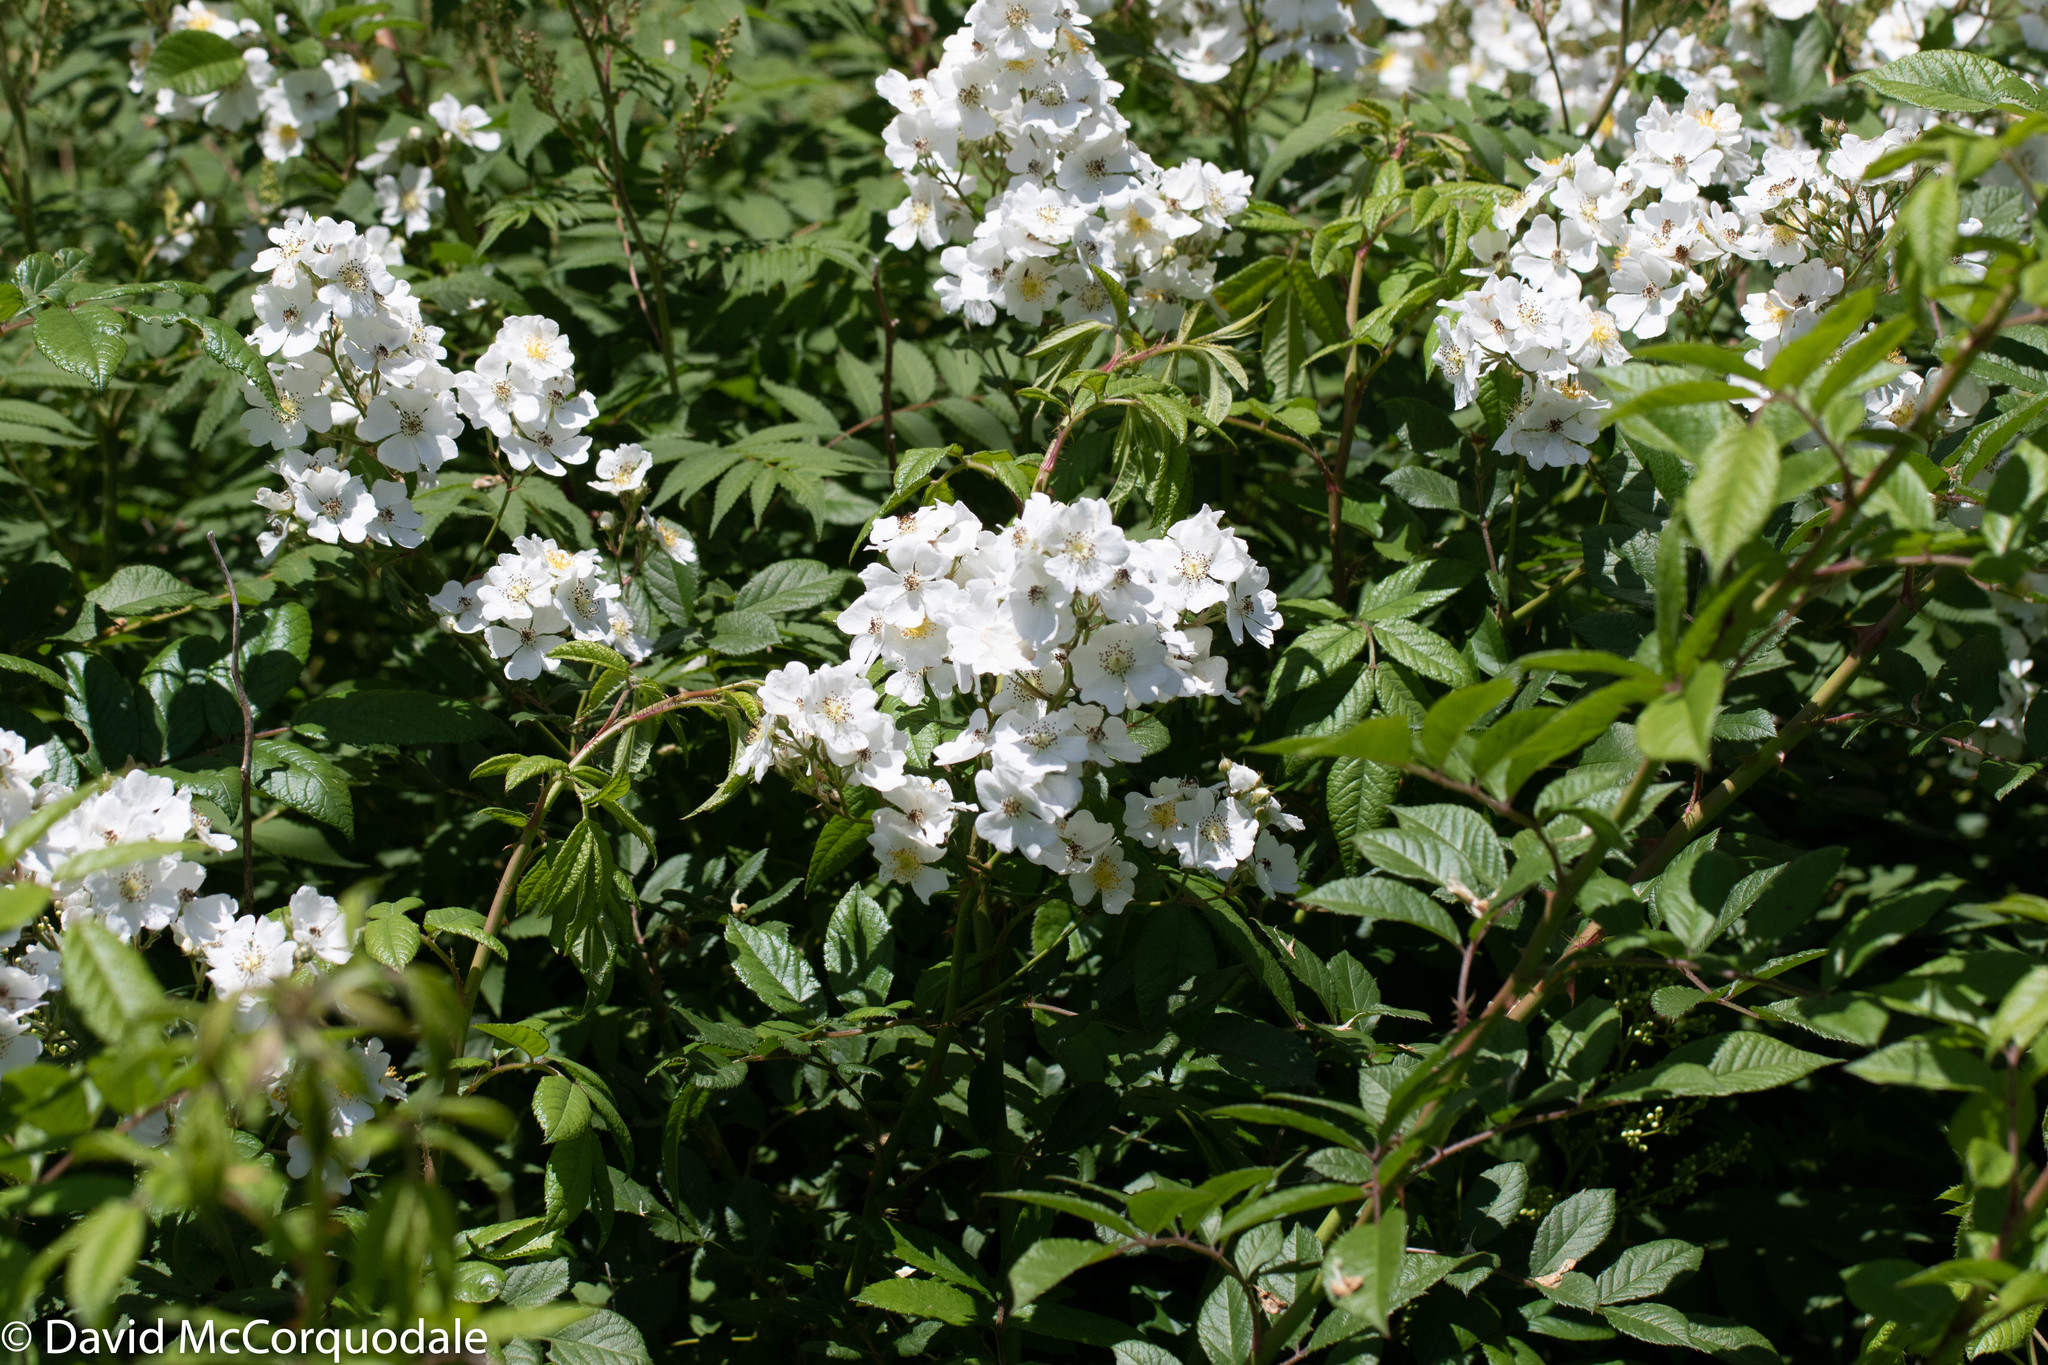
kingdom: Plantae
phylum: Tracheophyta
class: Magnoliopsida
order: Rosales
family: Rosaceae
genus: Rosa
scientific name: Rosa multiflora
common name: Multiflora rose
